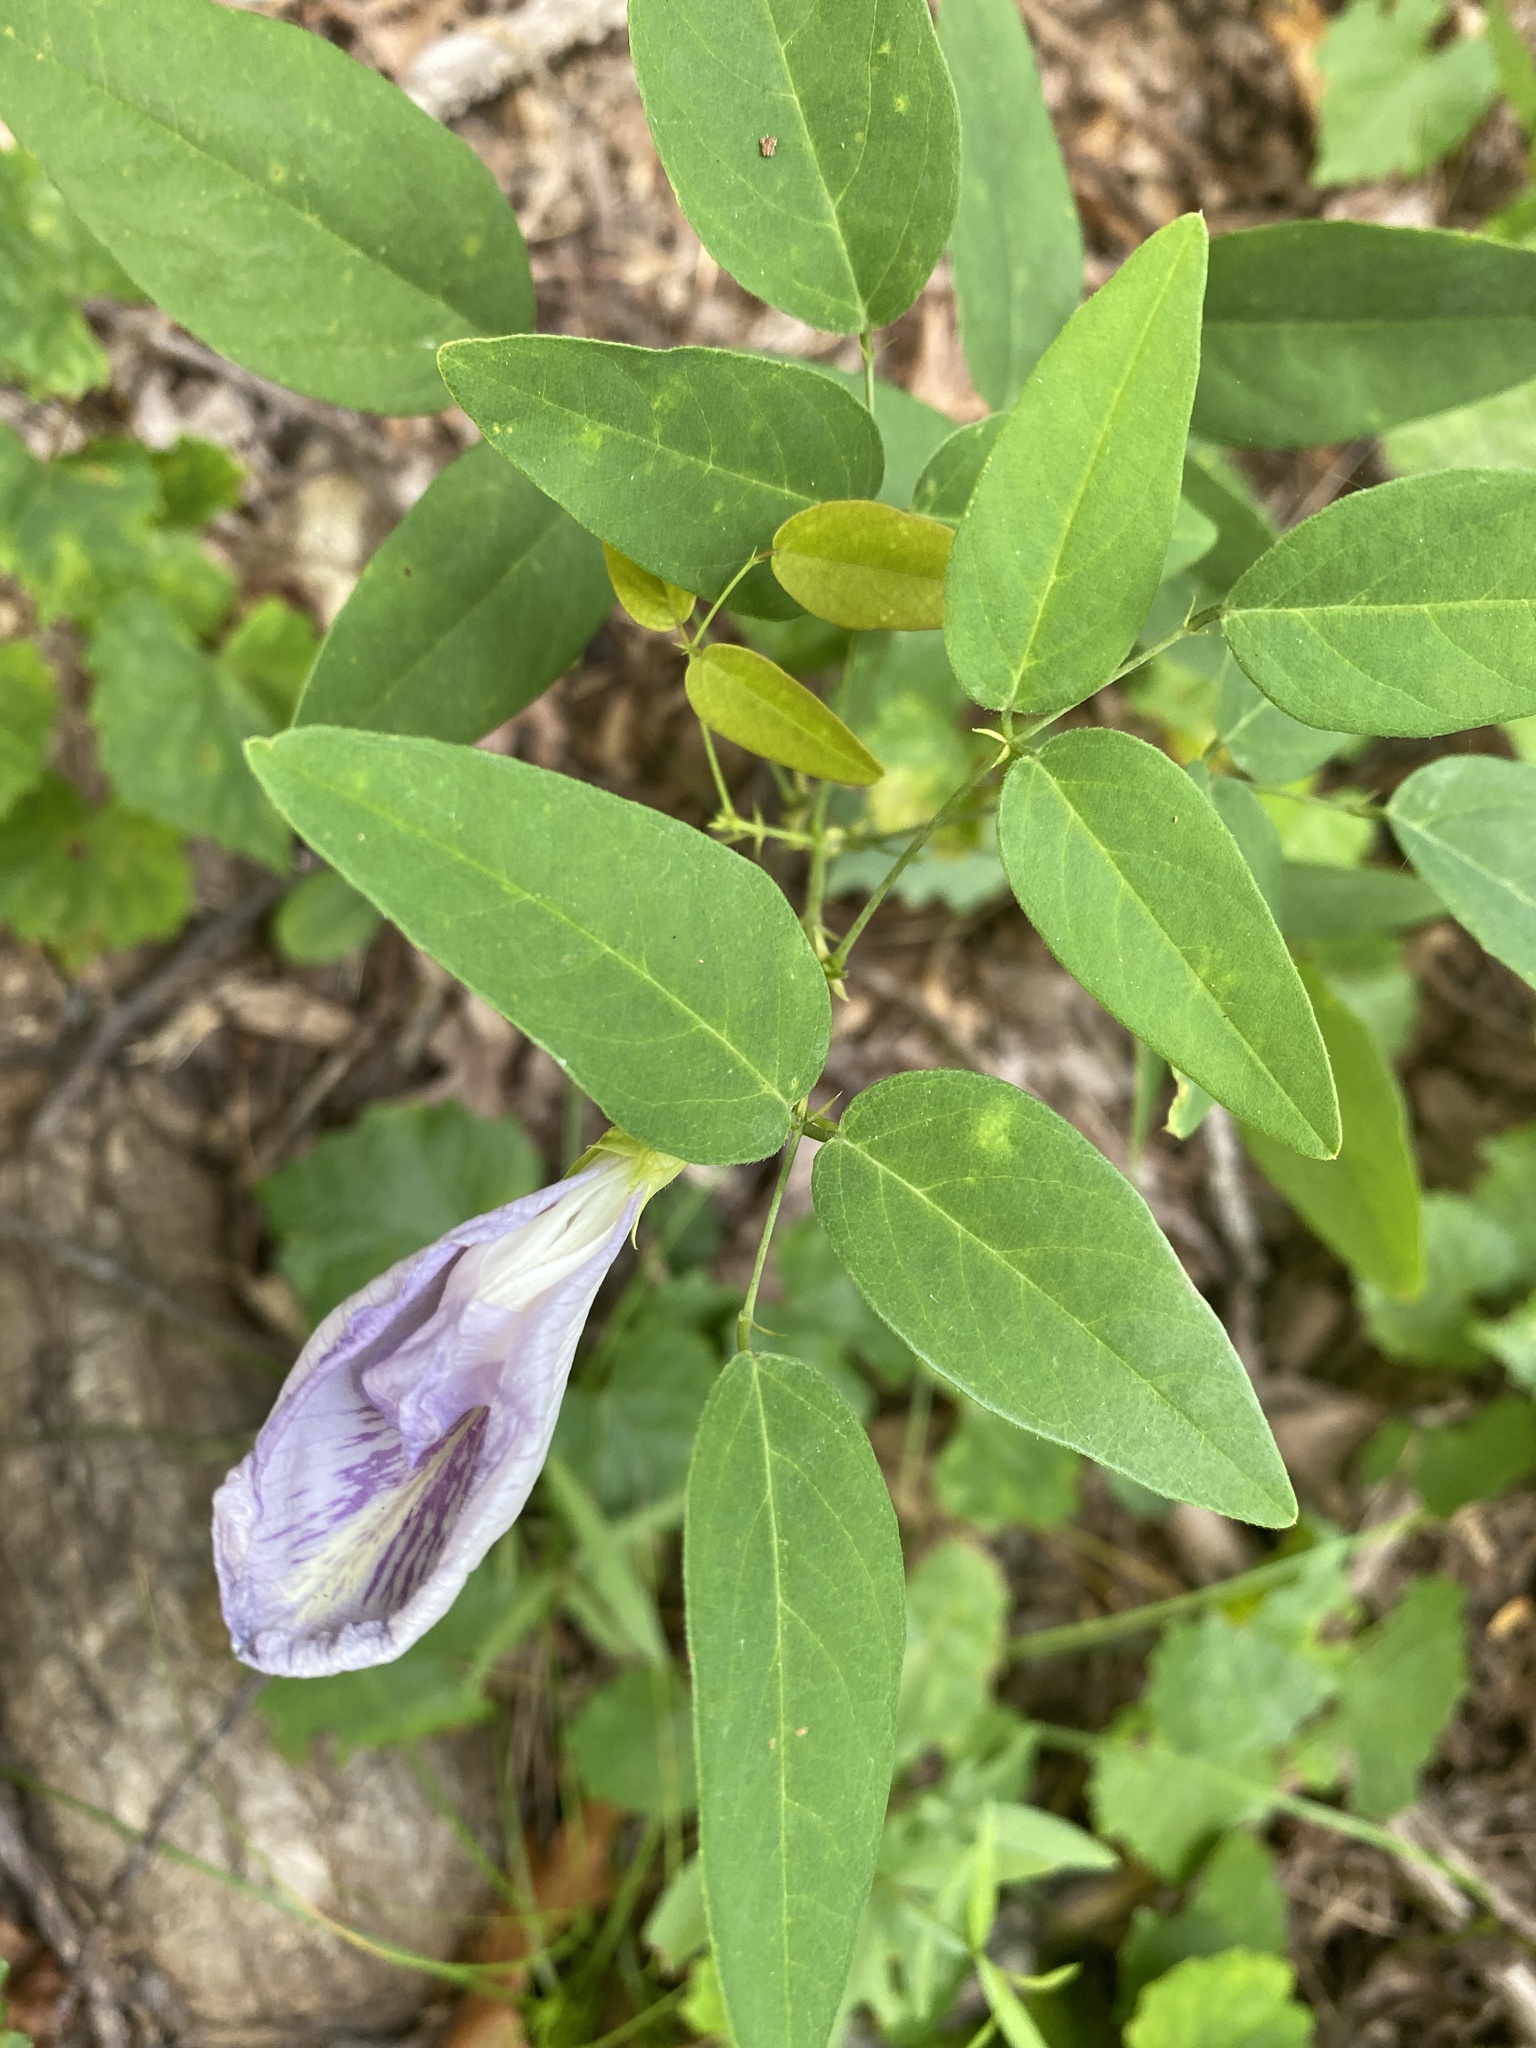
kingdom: Plantae
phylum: Tracheophyta
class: Magnoliopsida
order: Fabales
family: Fabaceae
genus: Clitoria
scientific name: Clitoria mariana
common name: Butterfly-pea
